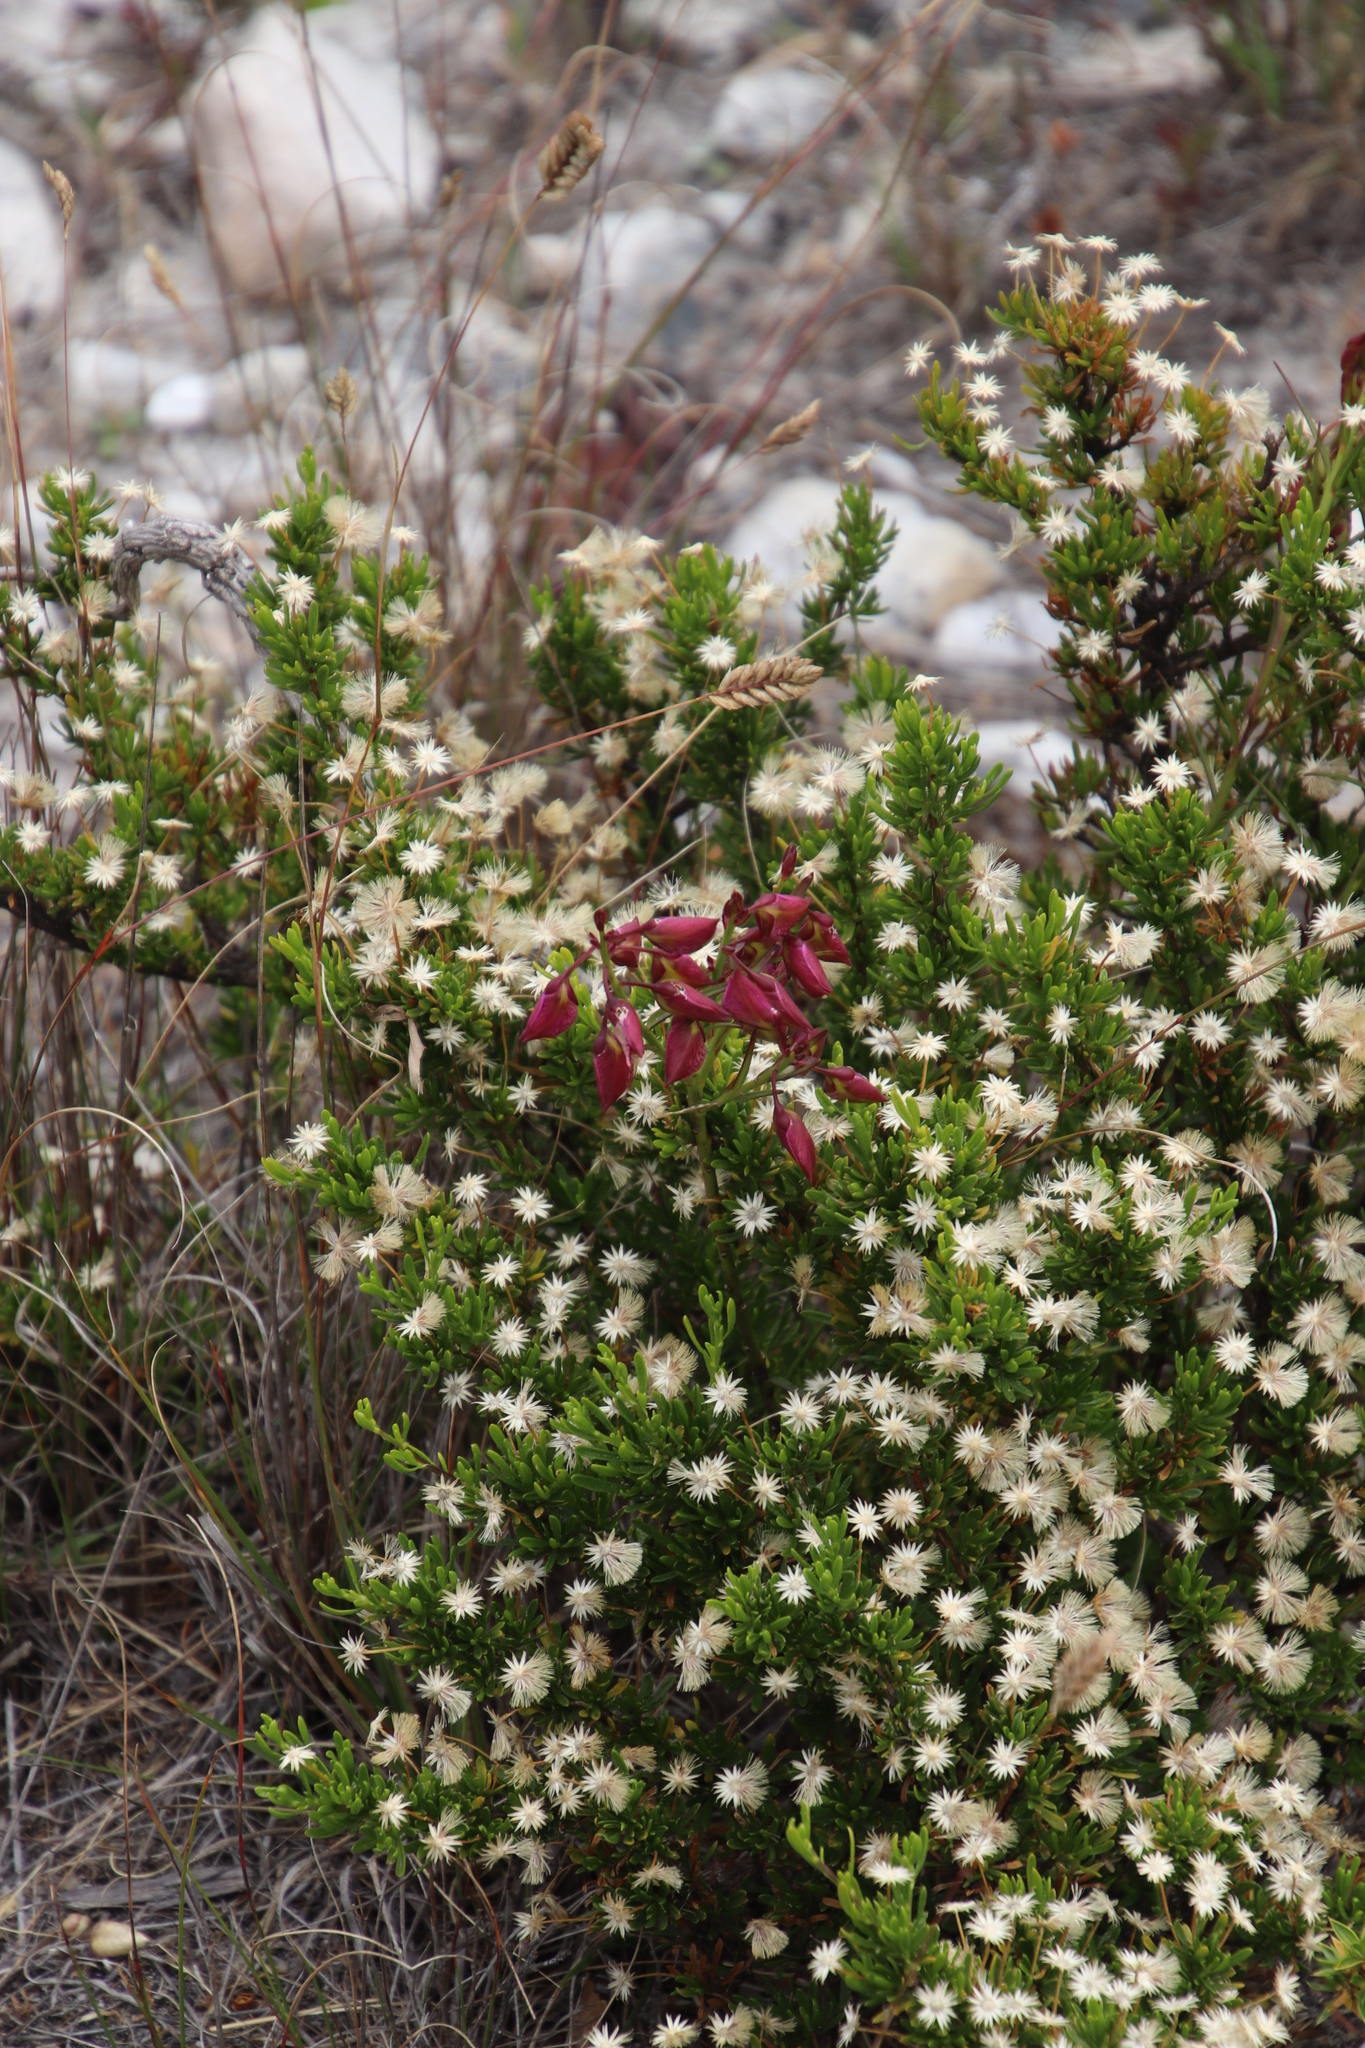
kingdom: Plantae
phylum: Tracheophyta
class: Magnoliopsida
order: Fabales
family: Polygalaceae
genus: Polygala
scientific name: Polygala bracteolata
